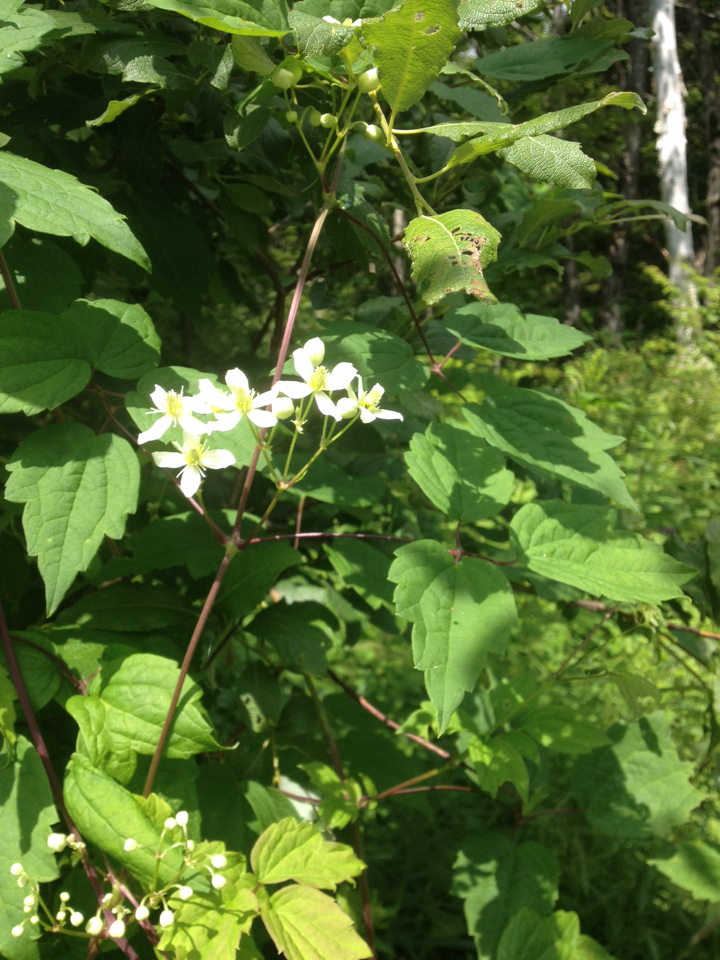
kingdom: Plantae
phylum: Tracheophyta
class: Magnoliopsida
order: Ranunculales
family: Ranunculaceae
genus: Clematis
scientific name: Clematis virginiana
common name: Virgin's-bower
